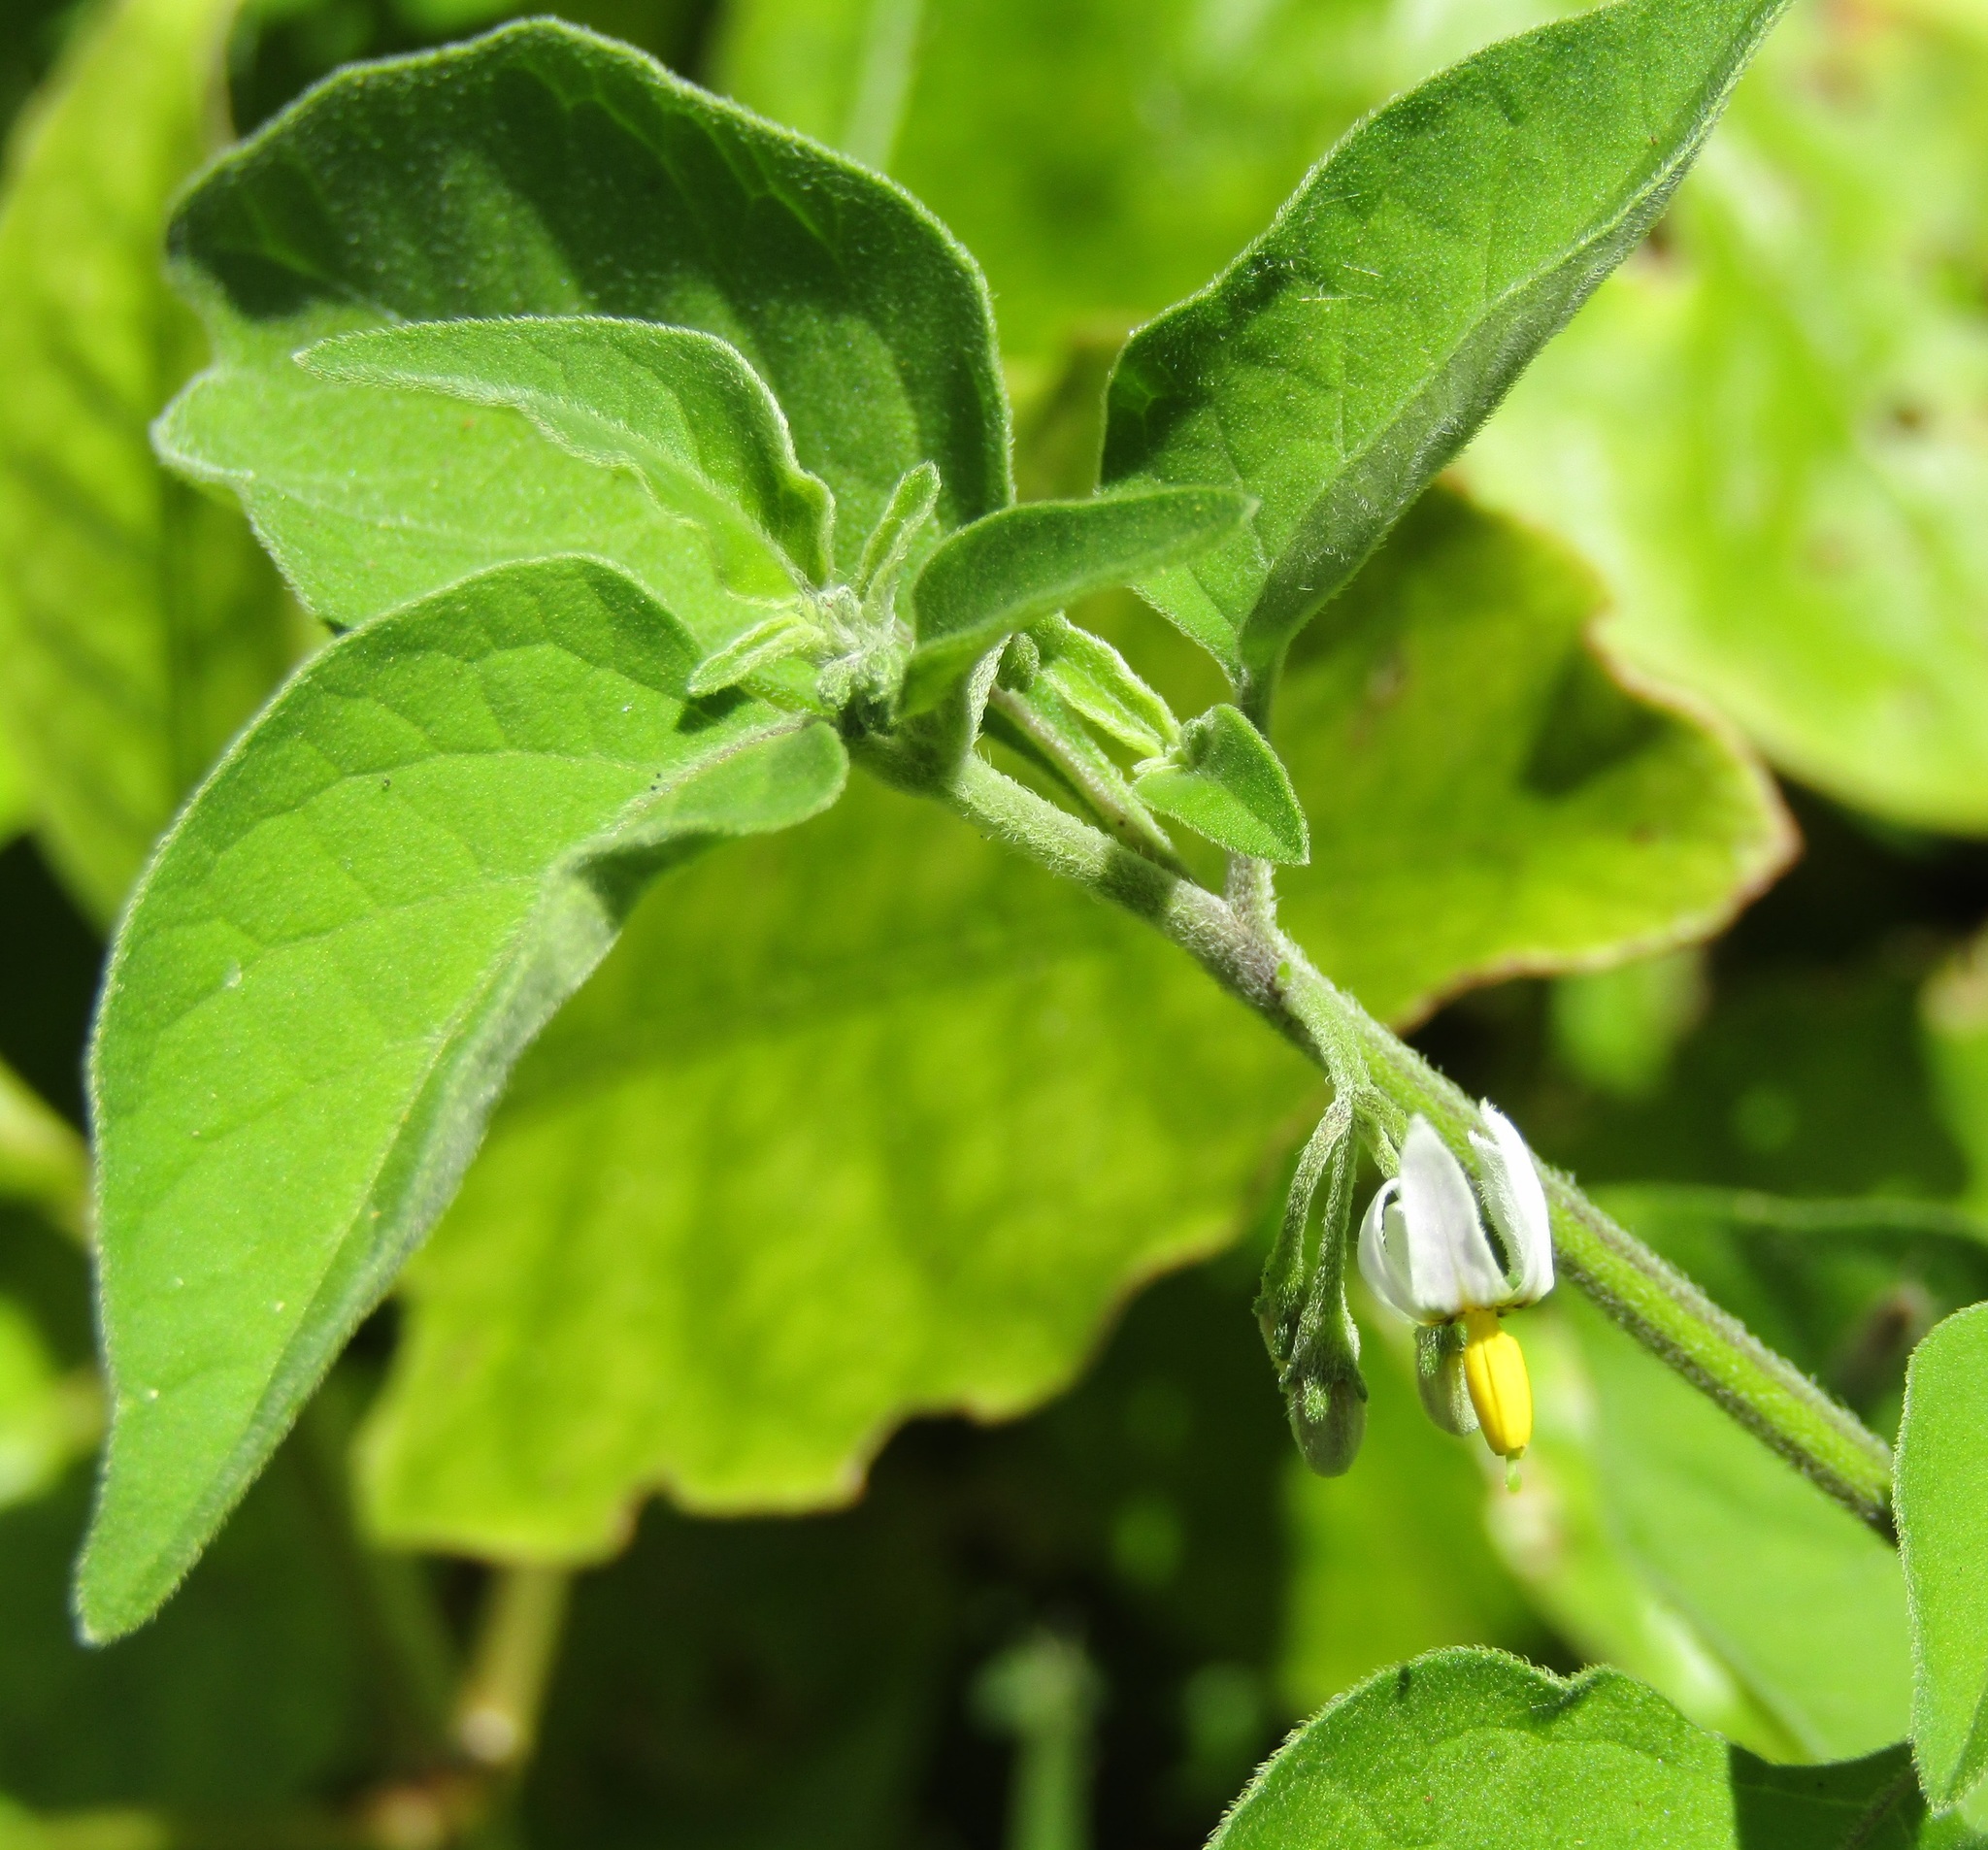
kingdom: Plantae
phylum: Tracheophyta
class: Magnoliopsida
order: Solanales
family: Solanaceae
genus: Solanum
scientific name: Solanum chenopodioides
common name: Tall nightshade
